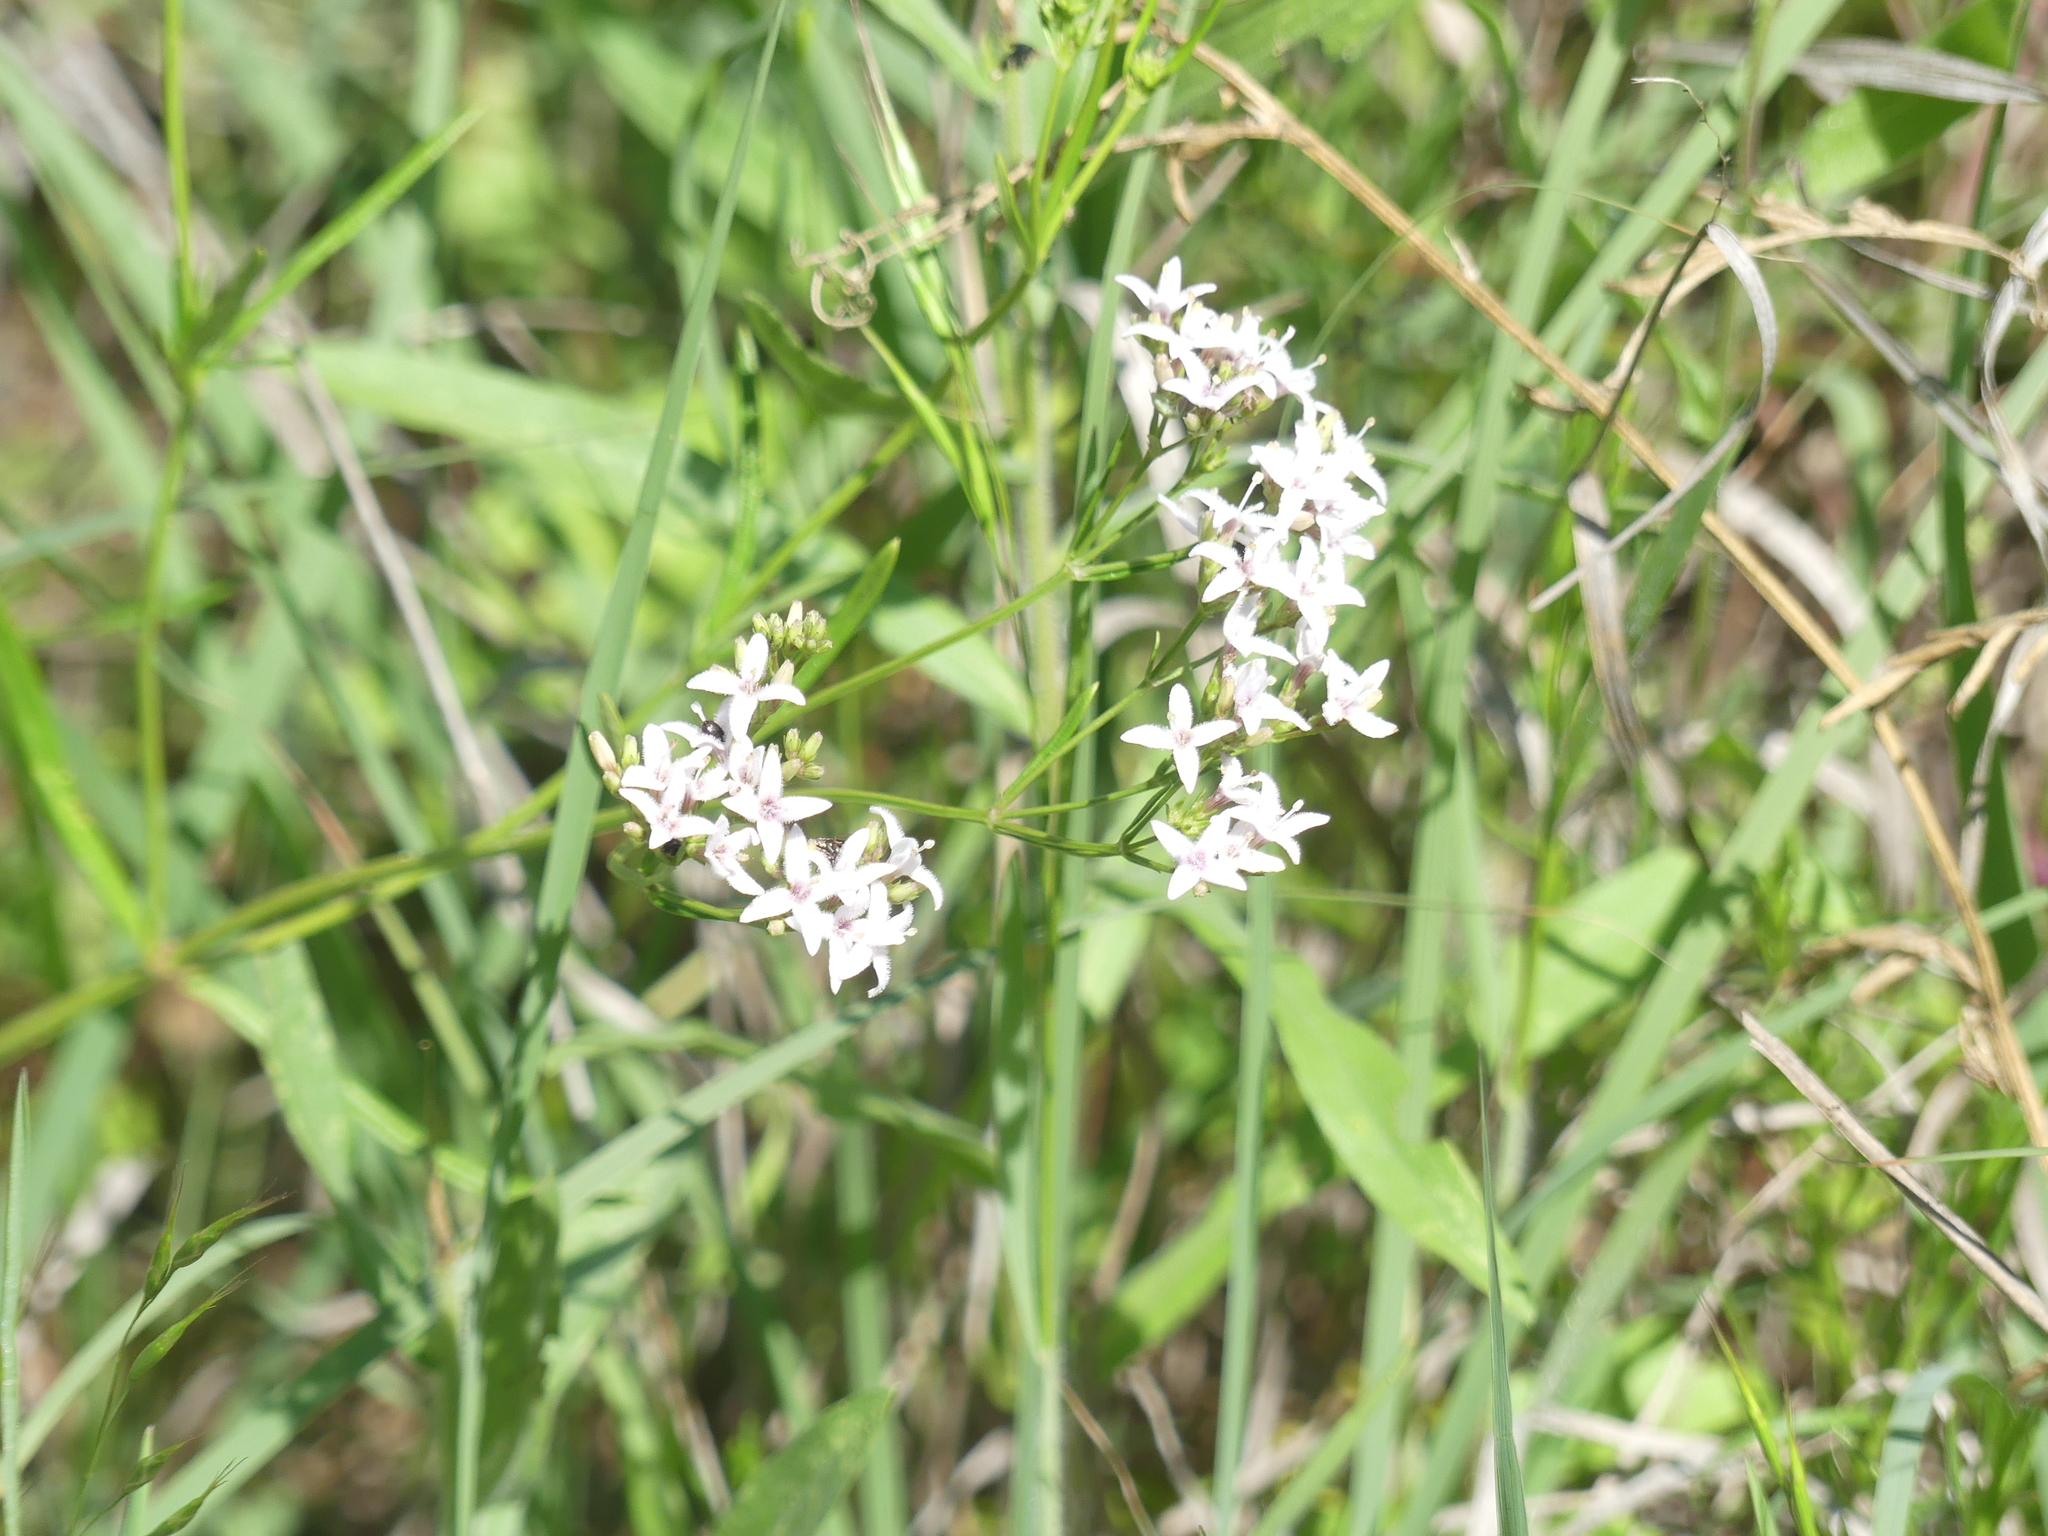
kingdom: Plantae
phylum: Tracheophyta
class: Magnoliopsida
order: Gentianales
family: Rubiaceae
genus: Stenaria
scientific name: Stenaria nigricans
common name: Diamondflowers
